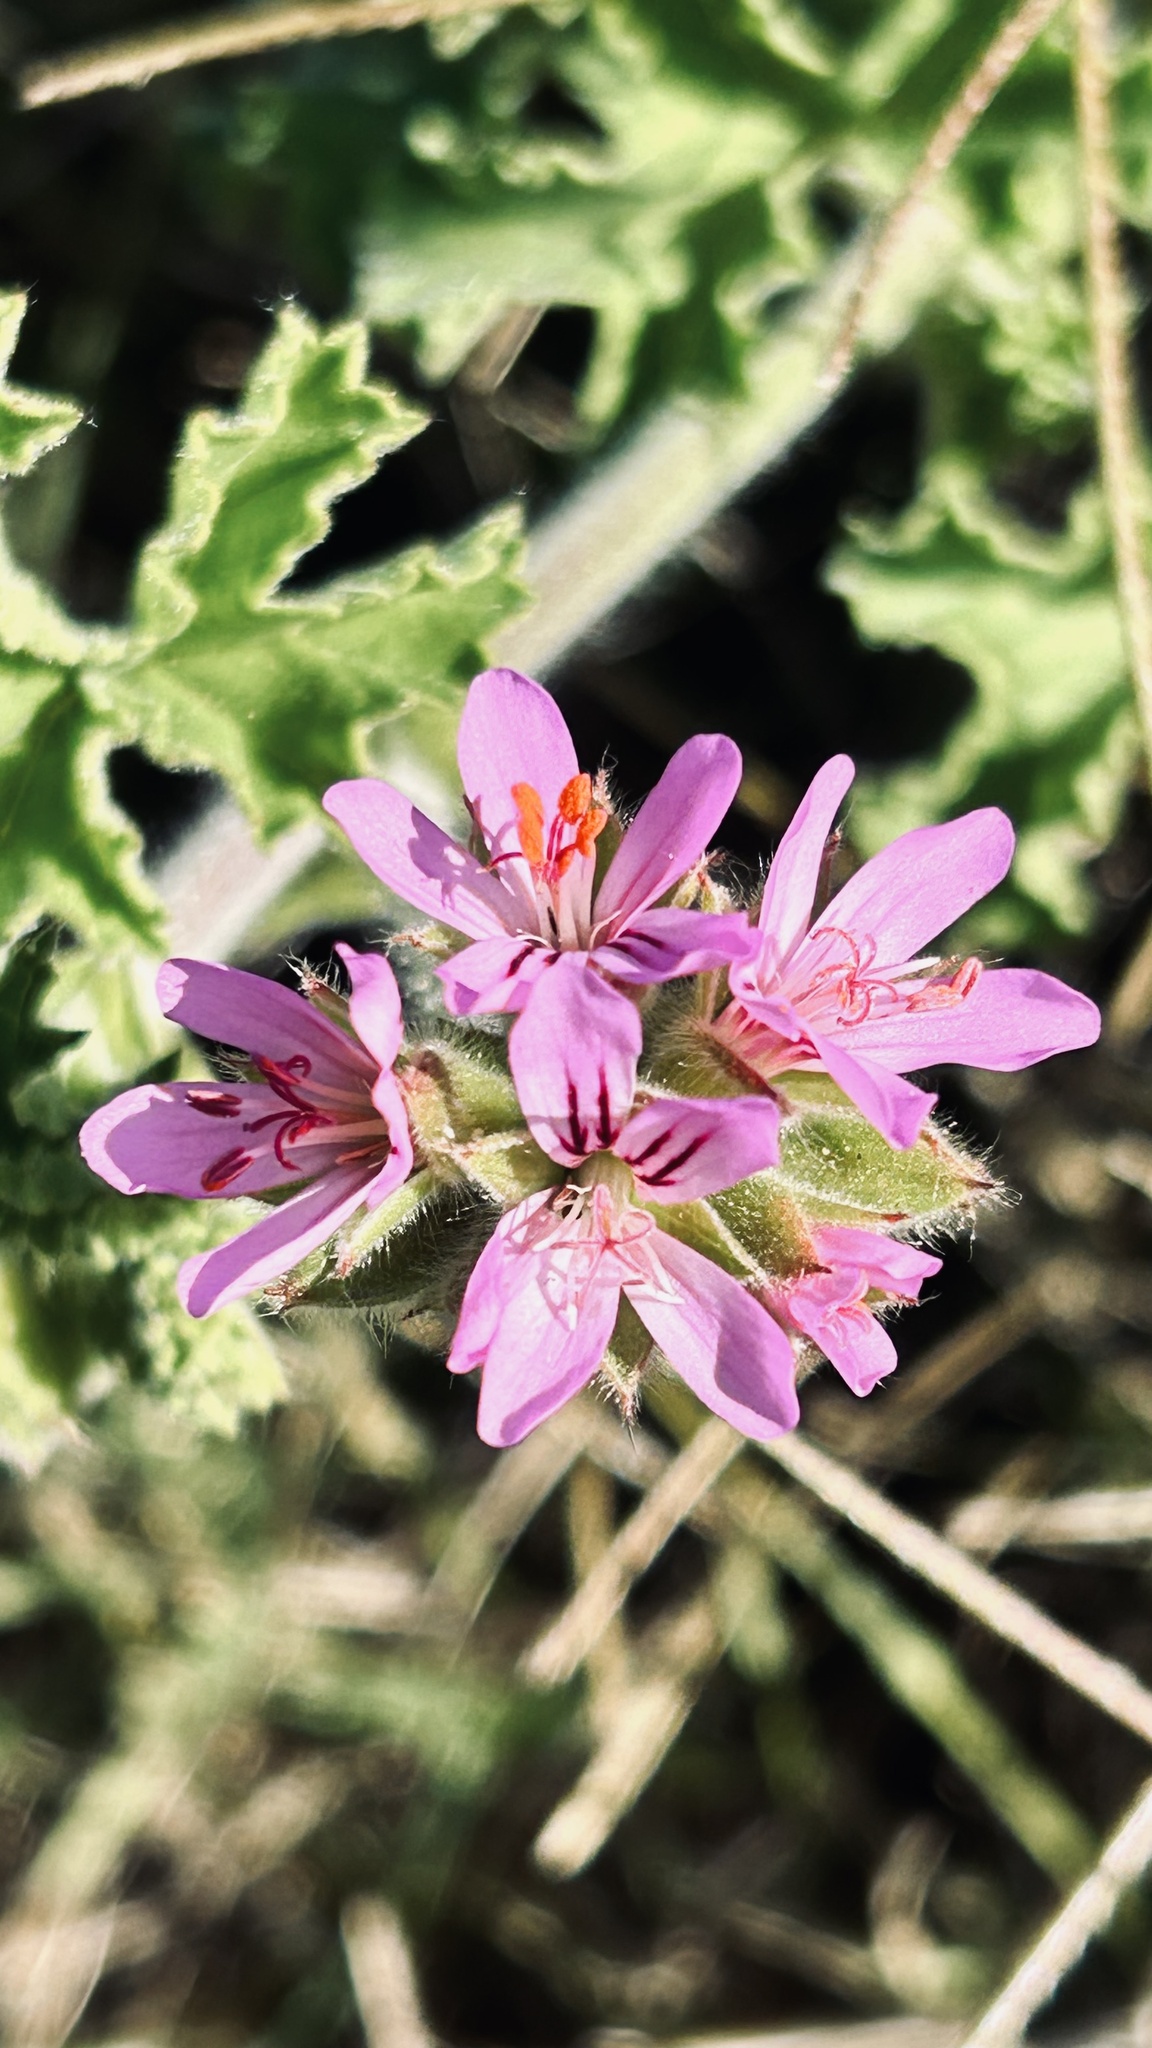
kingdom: Plantae
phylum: Tracheophyta
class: Magnoliopsida
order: Geraniales
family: Geraniaceae
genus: Pelargonium
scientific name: Pelargonium capitatum
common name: Rose scented geranium
